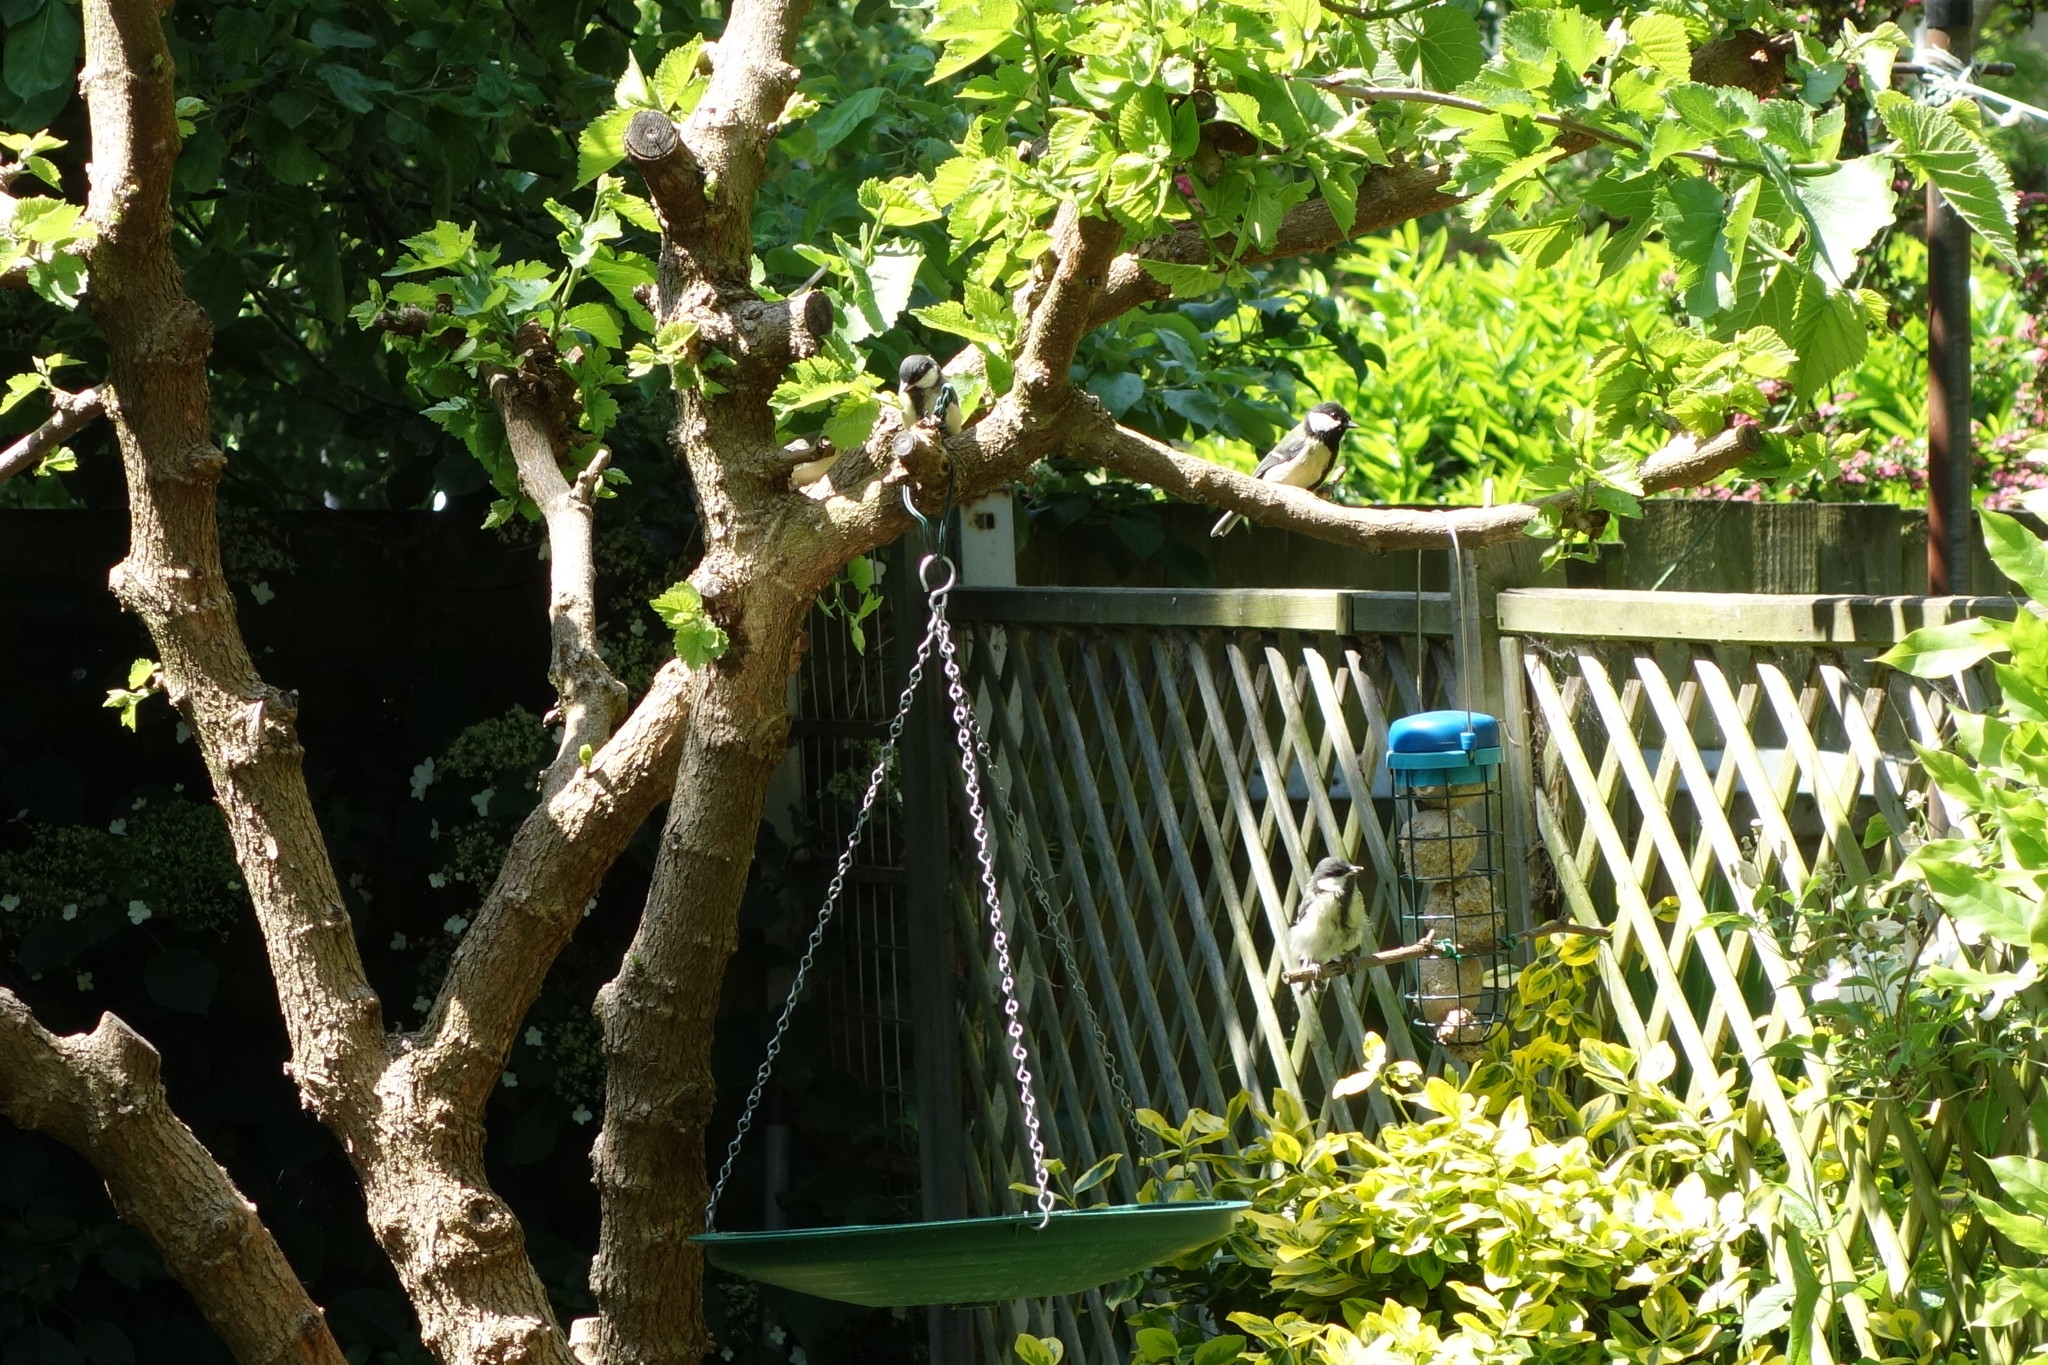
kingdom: Animalia
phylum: Chordata
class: Aves
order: Passeriformes
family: Paridae
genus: Parus
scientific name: Parus major
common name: Great tit
